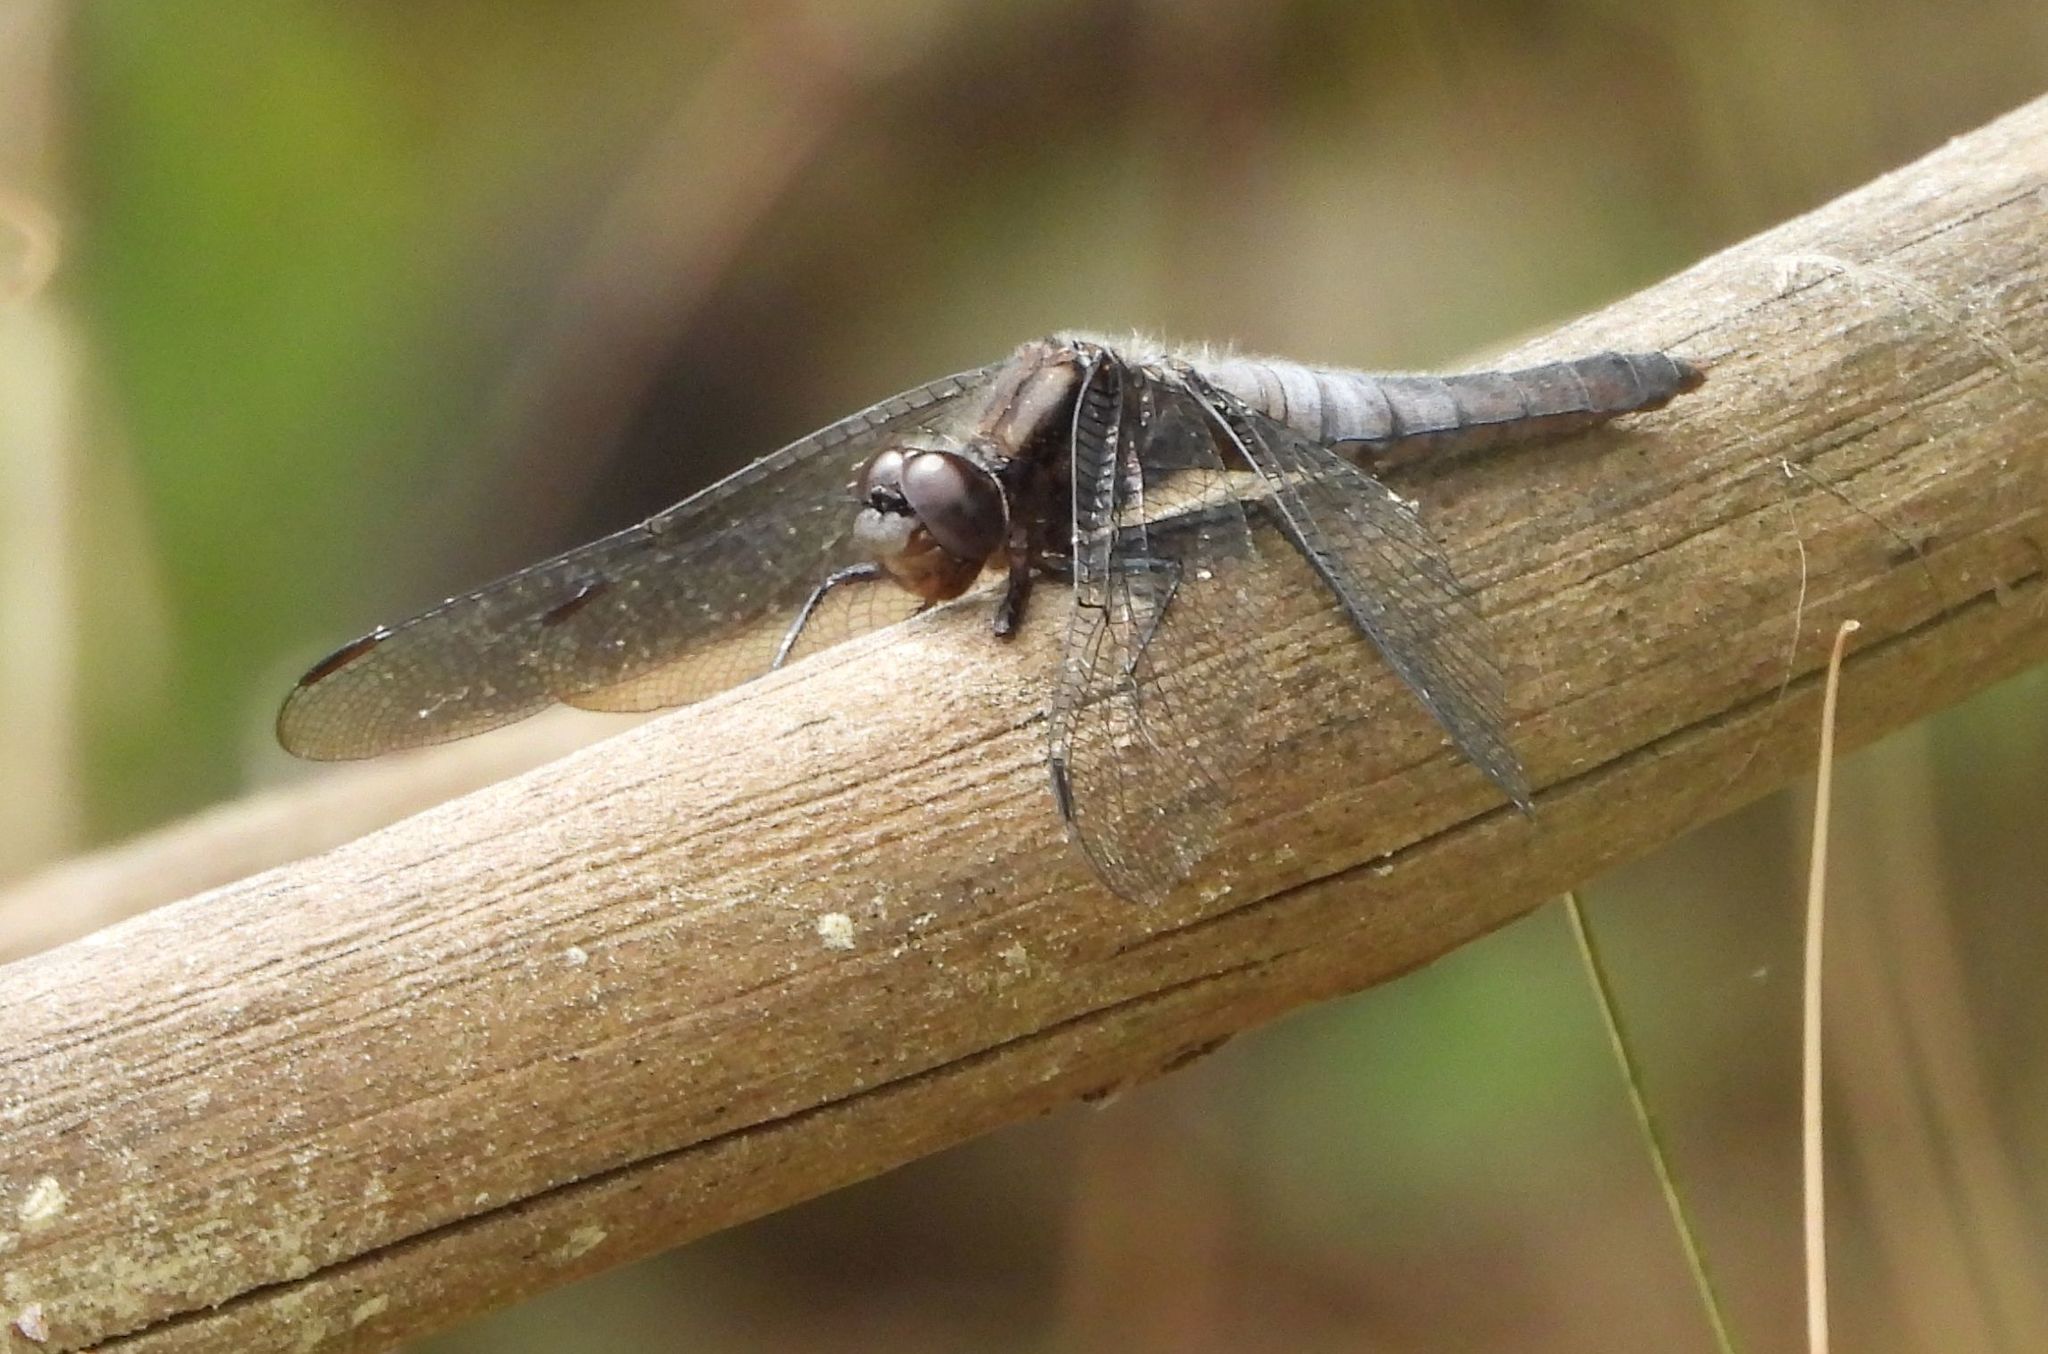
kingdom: Animalia
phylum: Arthropoda
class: Insecta
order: Odonata
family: Libellulidae
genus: Ladona
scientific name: Ladona julia
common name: Chalk-fronted corporal
